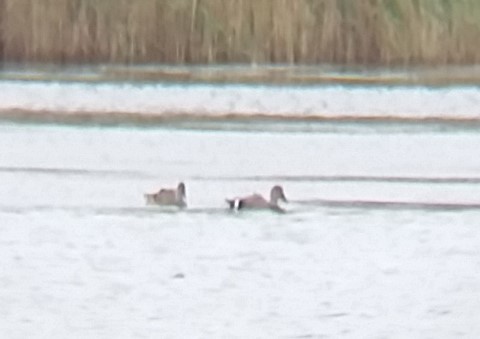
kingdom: Animalia
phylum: Chordata
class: Aves
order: Anseriformes
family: Anatidae
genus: Mareca
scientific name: Mareca strepera
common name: Gadwall
